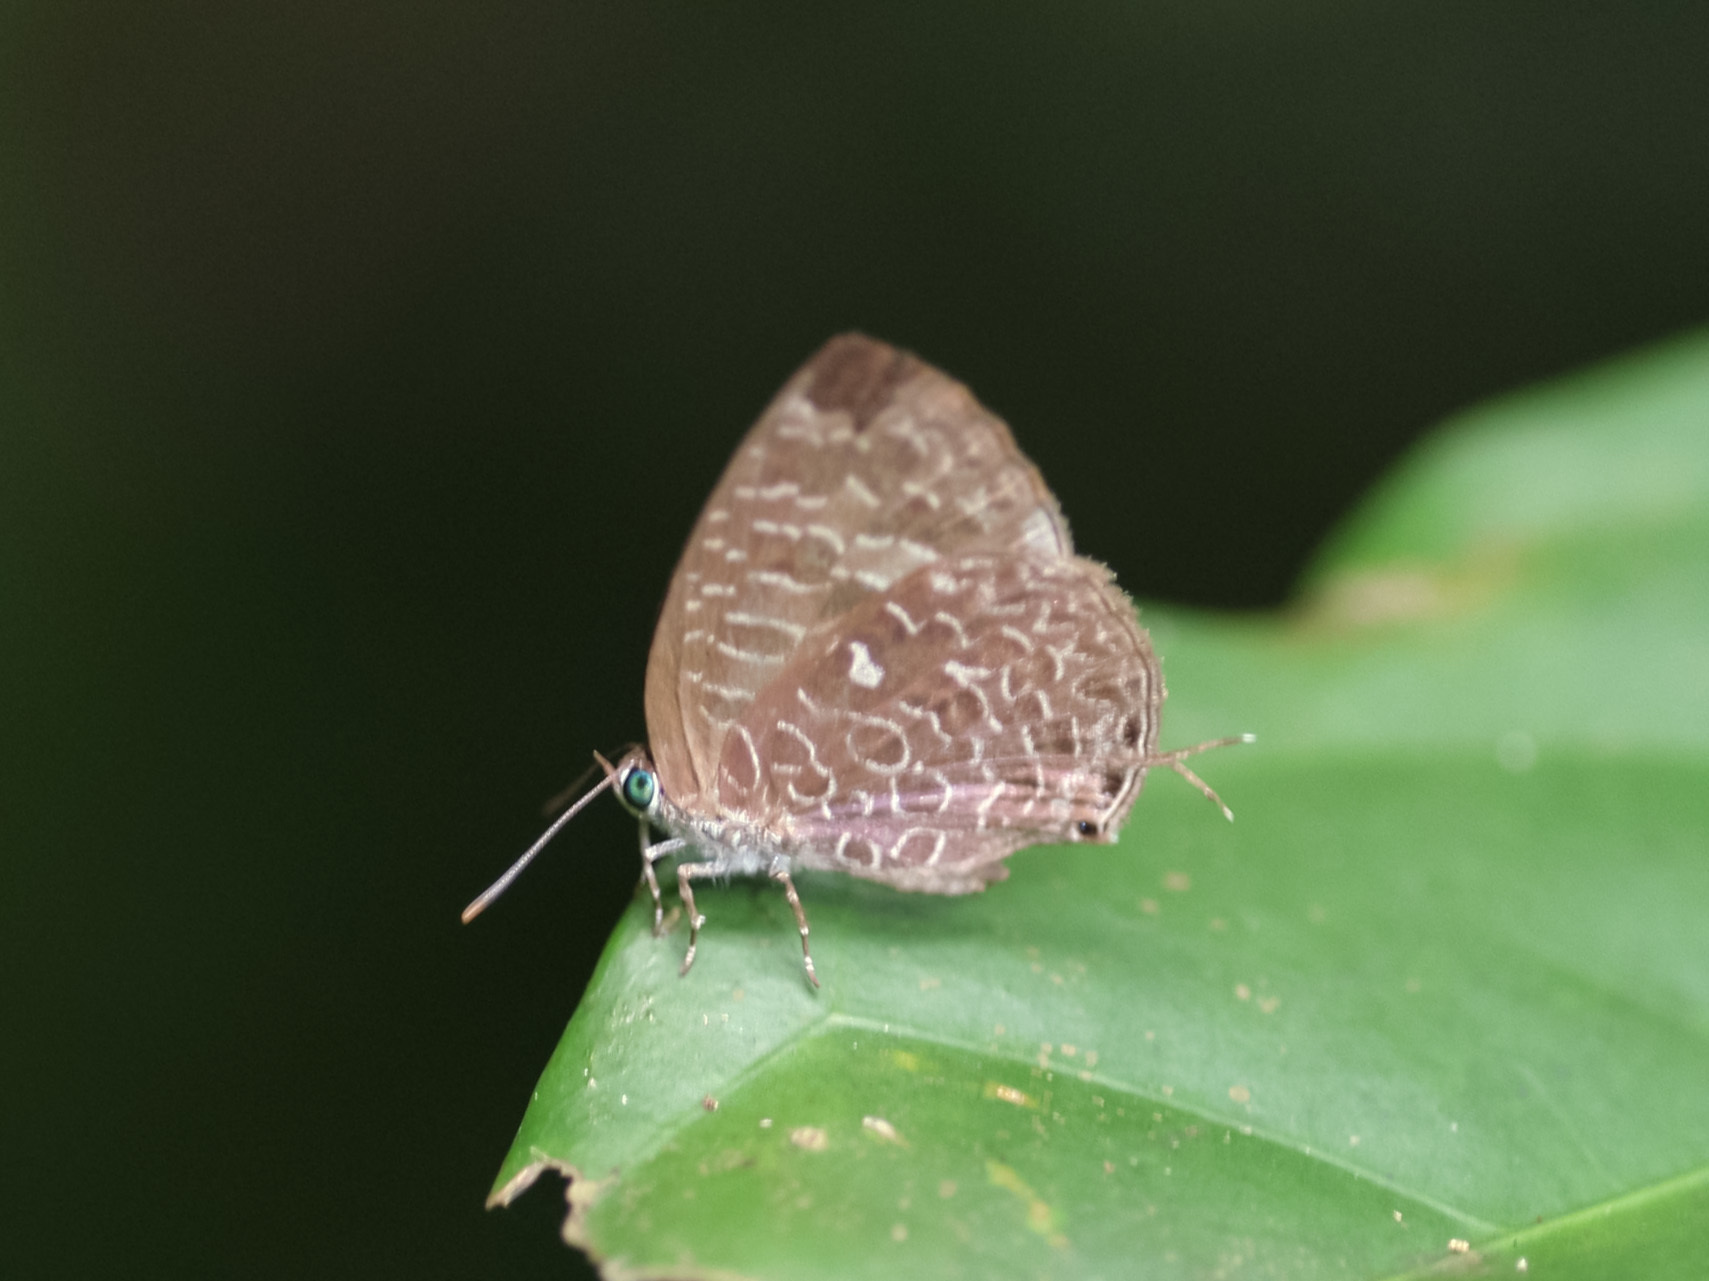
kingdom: Animalia
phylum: Arthropoda
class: Insecta
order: Lepidoptera
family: Lycaenidae
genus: Arhopala
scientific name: Arhopala ammon
